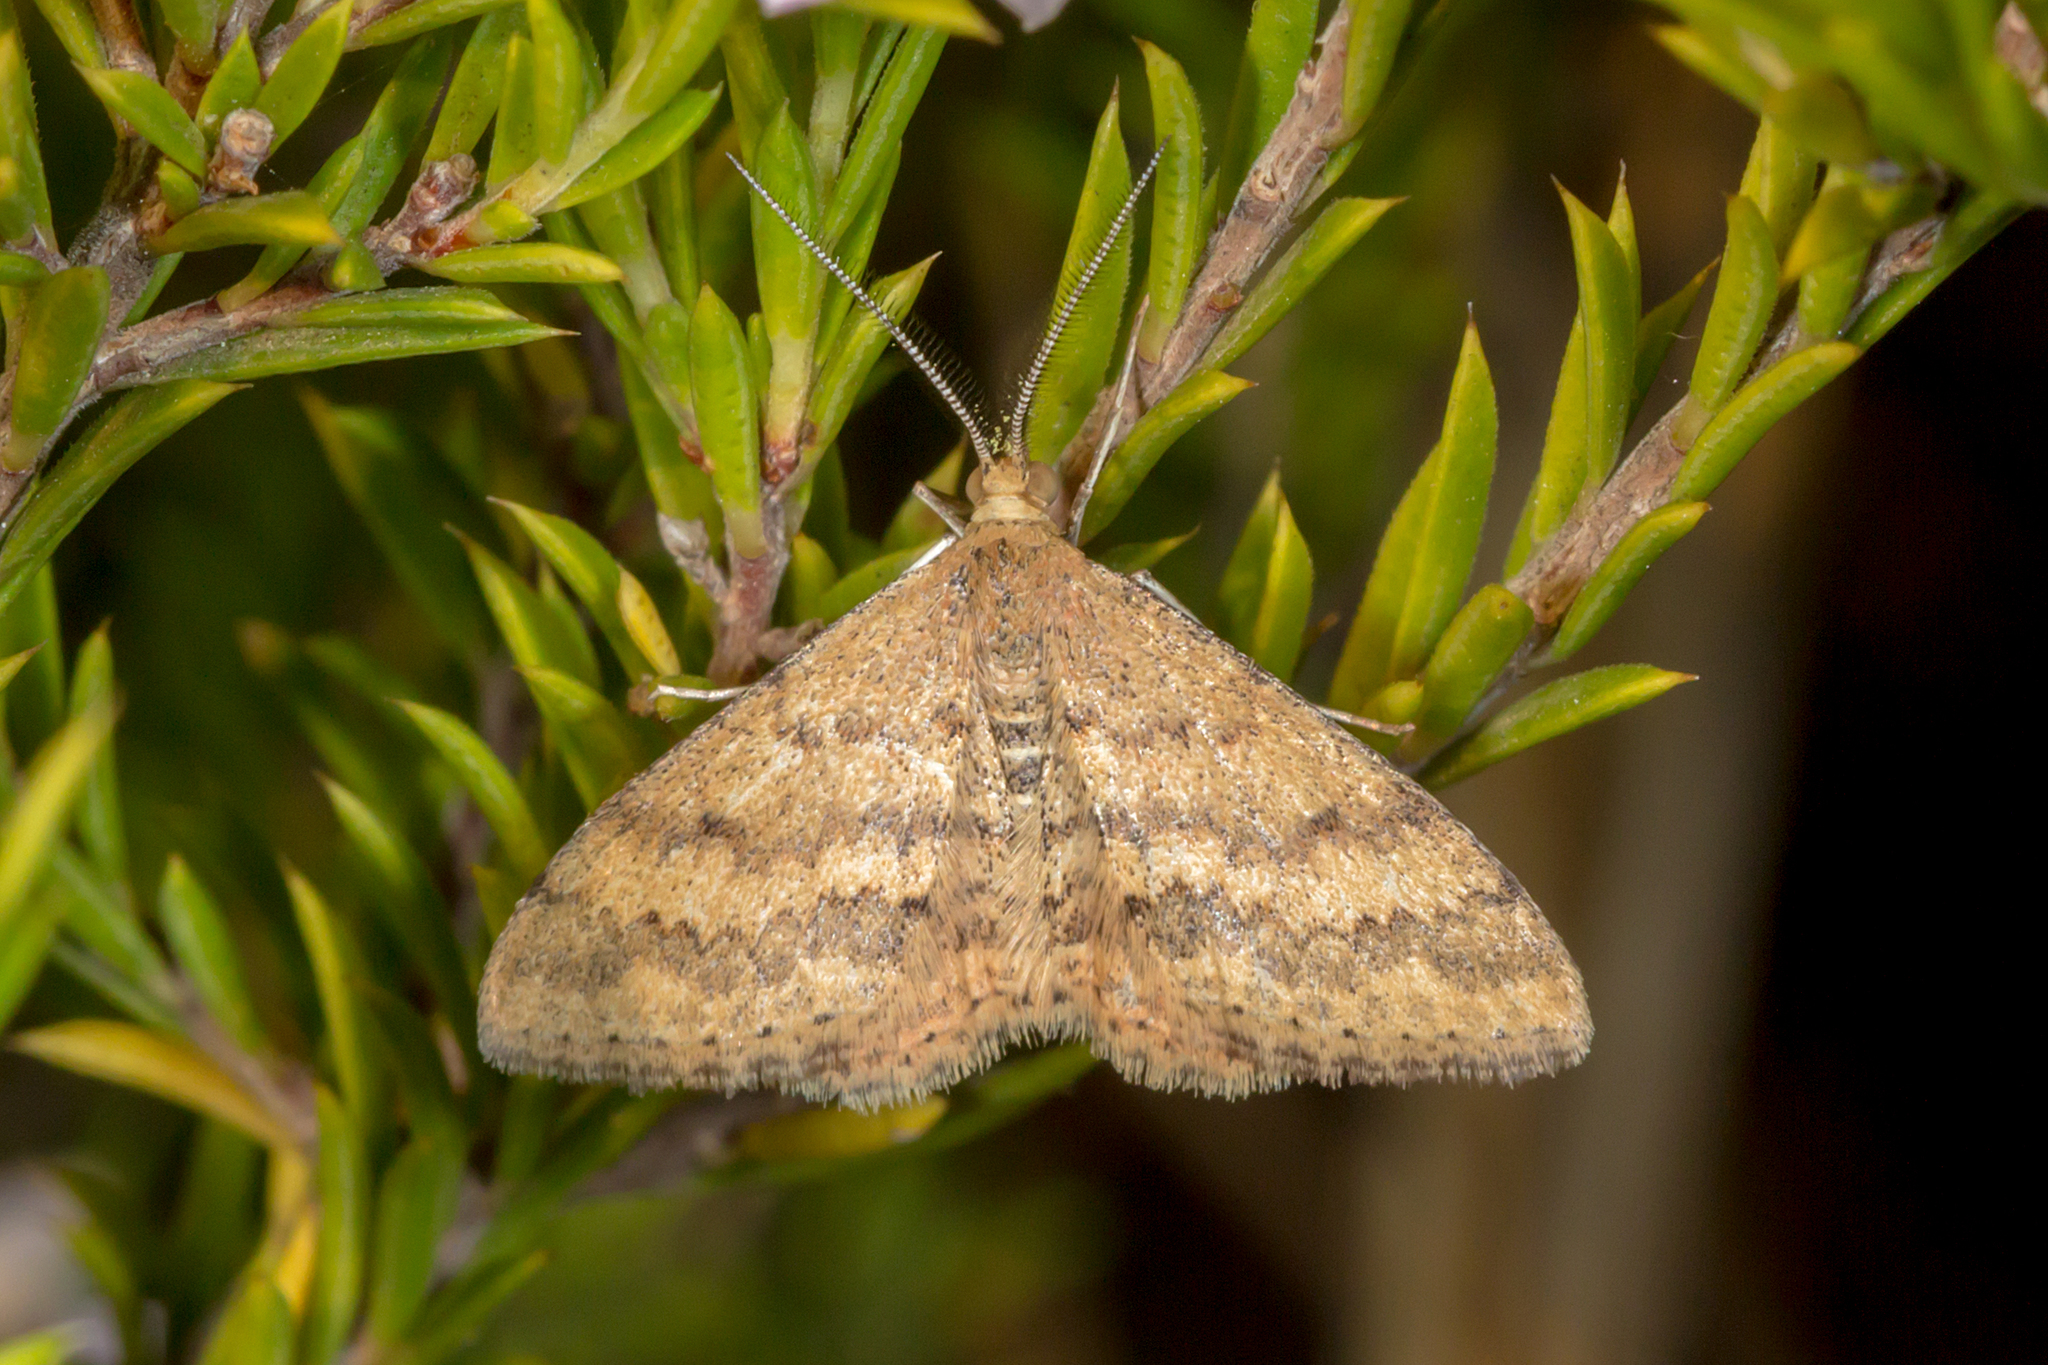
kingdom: Animalia
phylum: Arthropoda
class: Insecta
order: Lepidoptera
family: Geometridae
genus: Scopula
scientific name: Scopula rubraria
